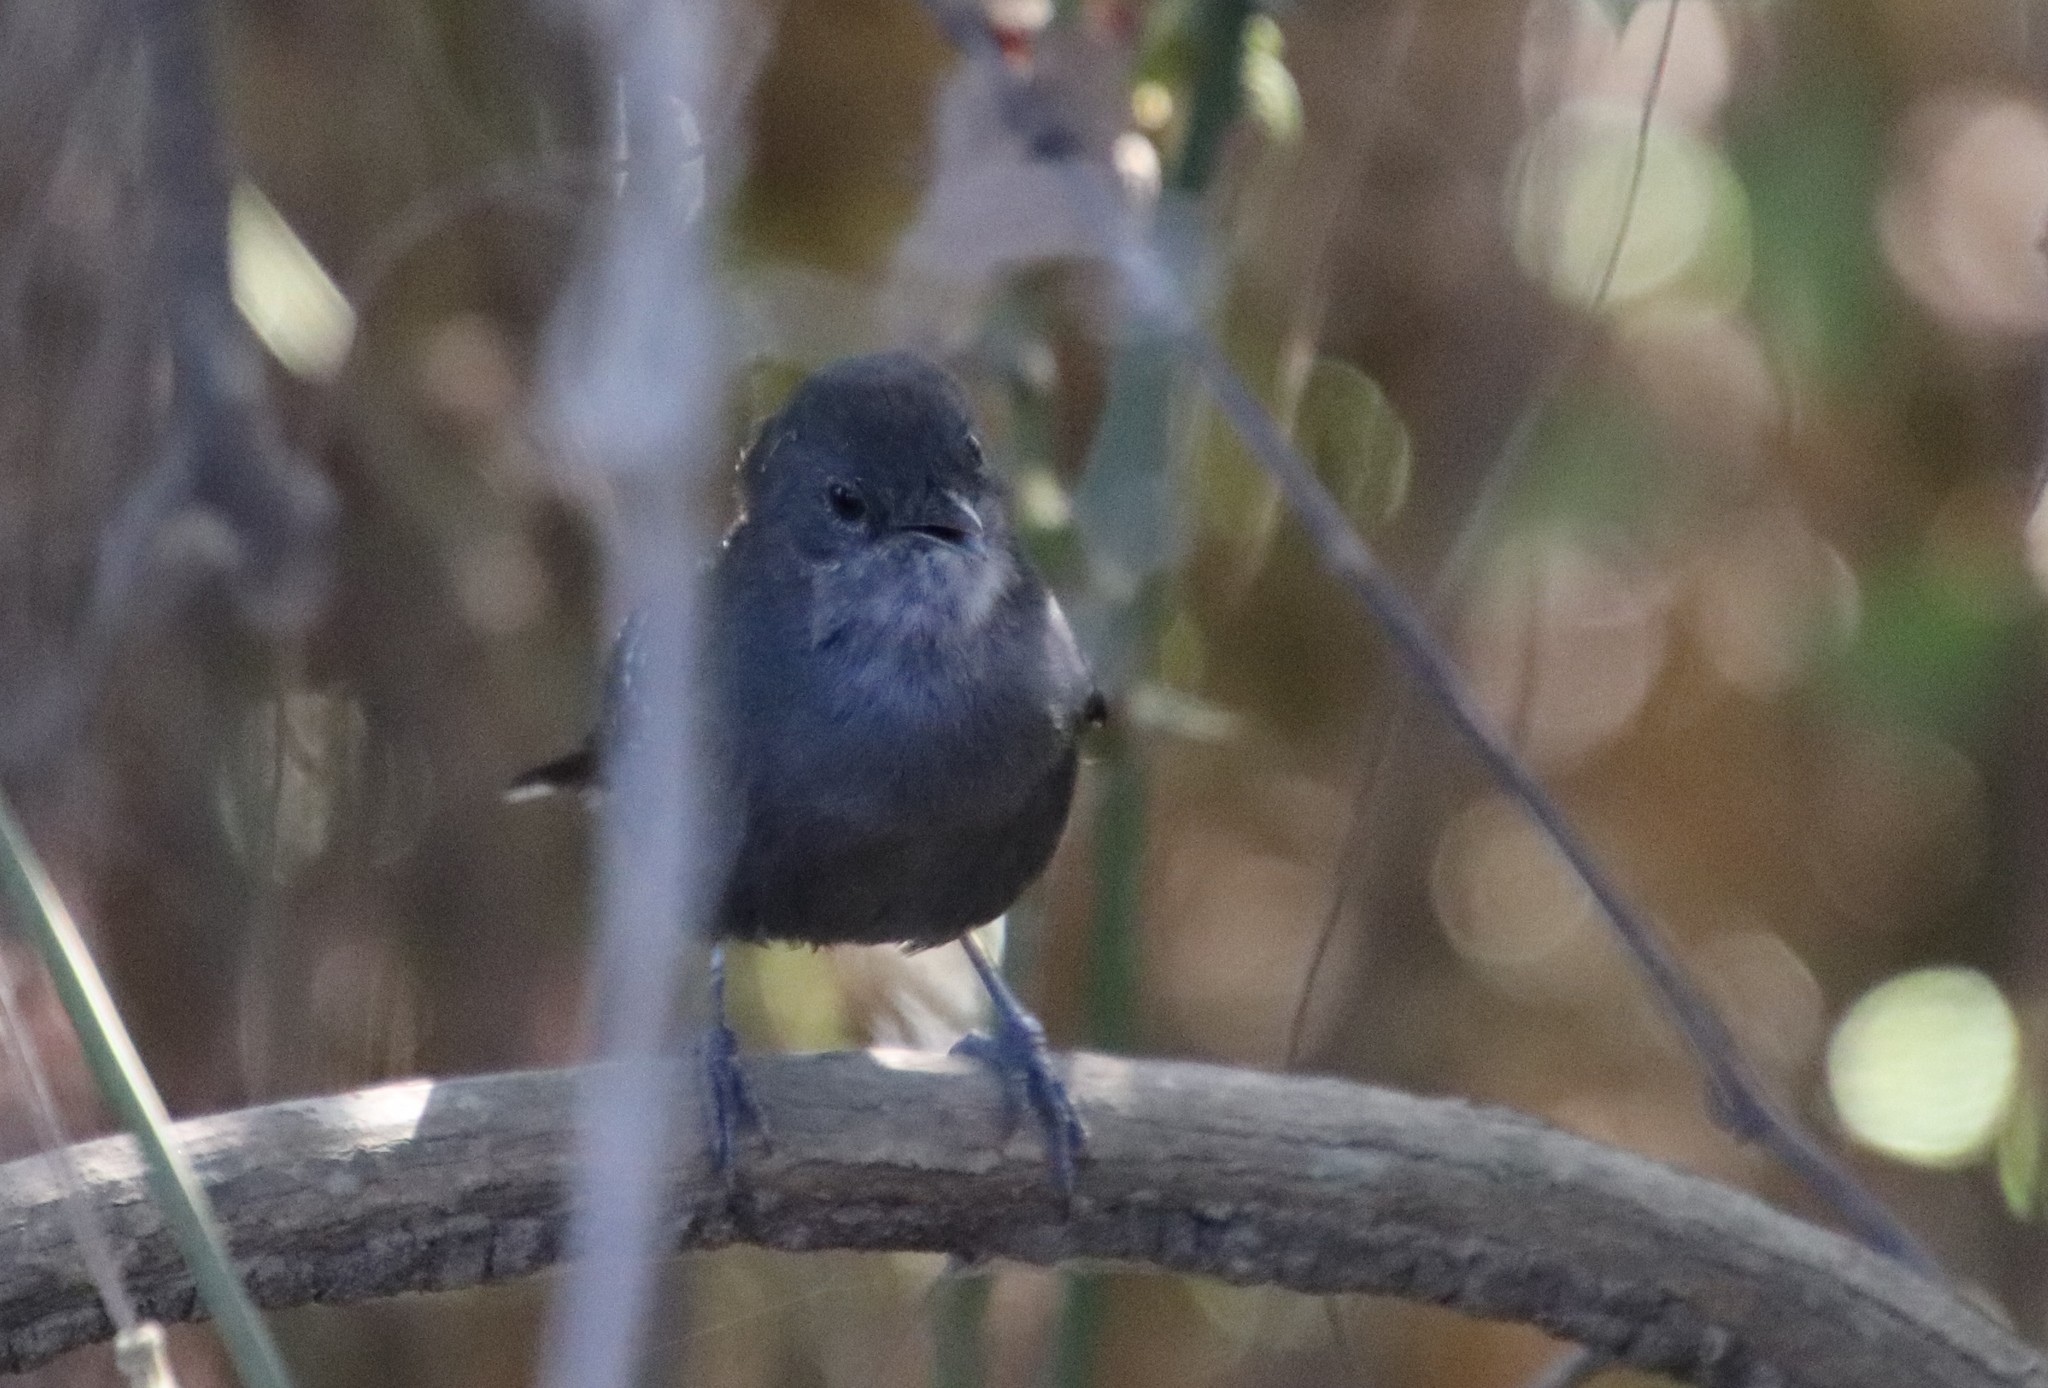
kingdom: Animalia
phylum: Chordata
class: Aves
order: Passeriformes
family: Thamnophilidae
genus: Cercomacra
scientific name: Cercomacra melanaria
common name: Mato grosso antbird
